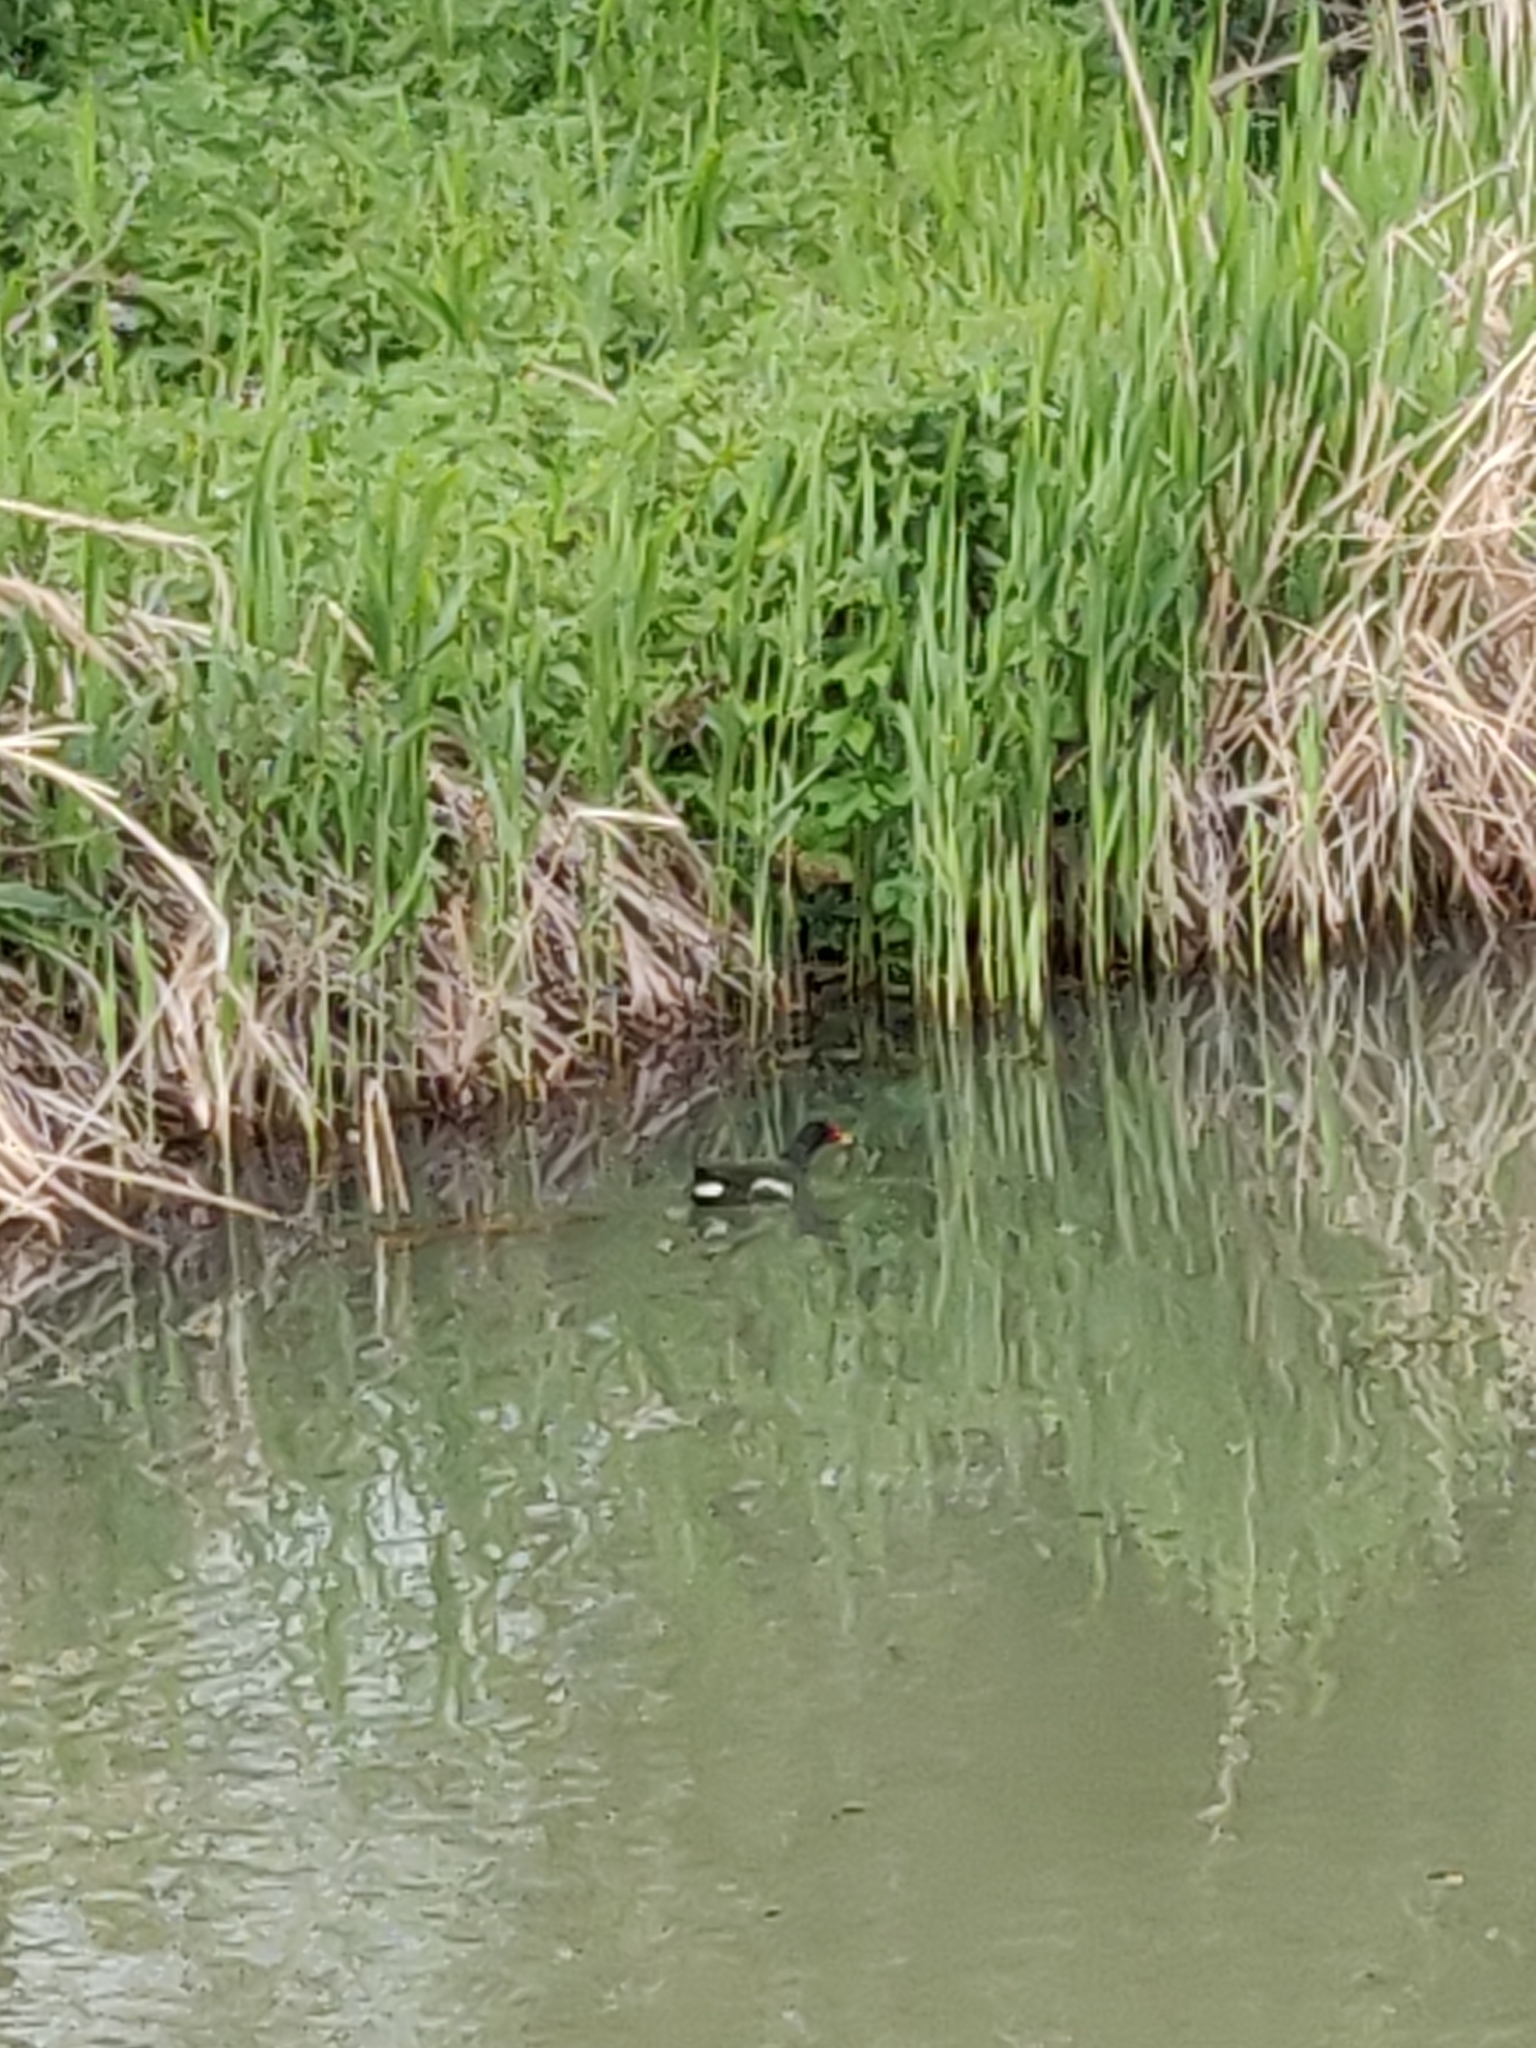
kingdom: Animalia
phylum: Chordata
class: Aves
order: Gruiformes
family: Rallidae
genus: Gallinula
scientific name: Gallinula chloropus
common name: Common moorhen
